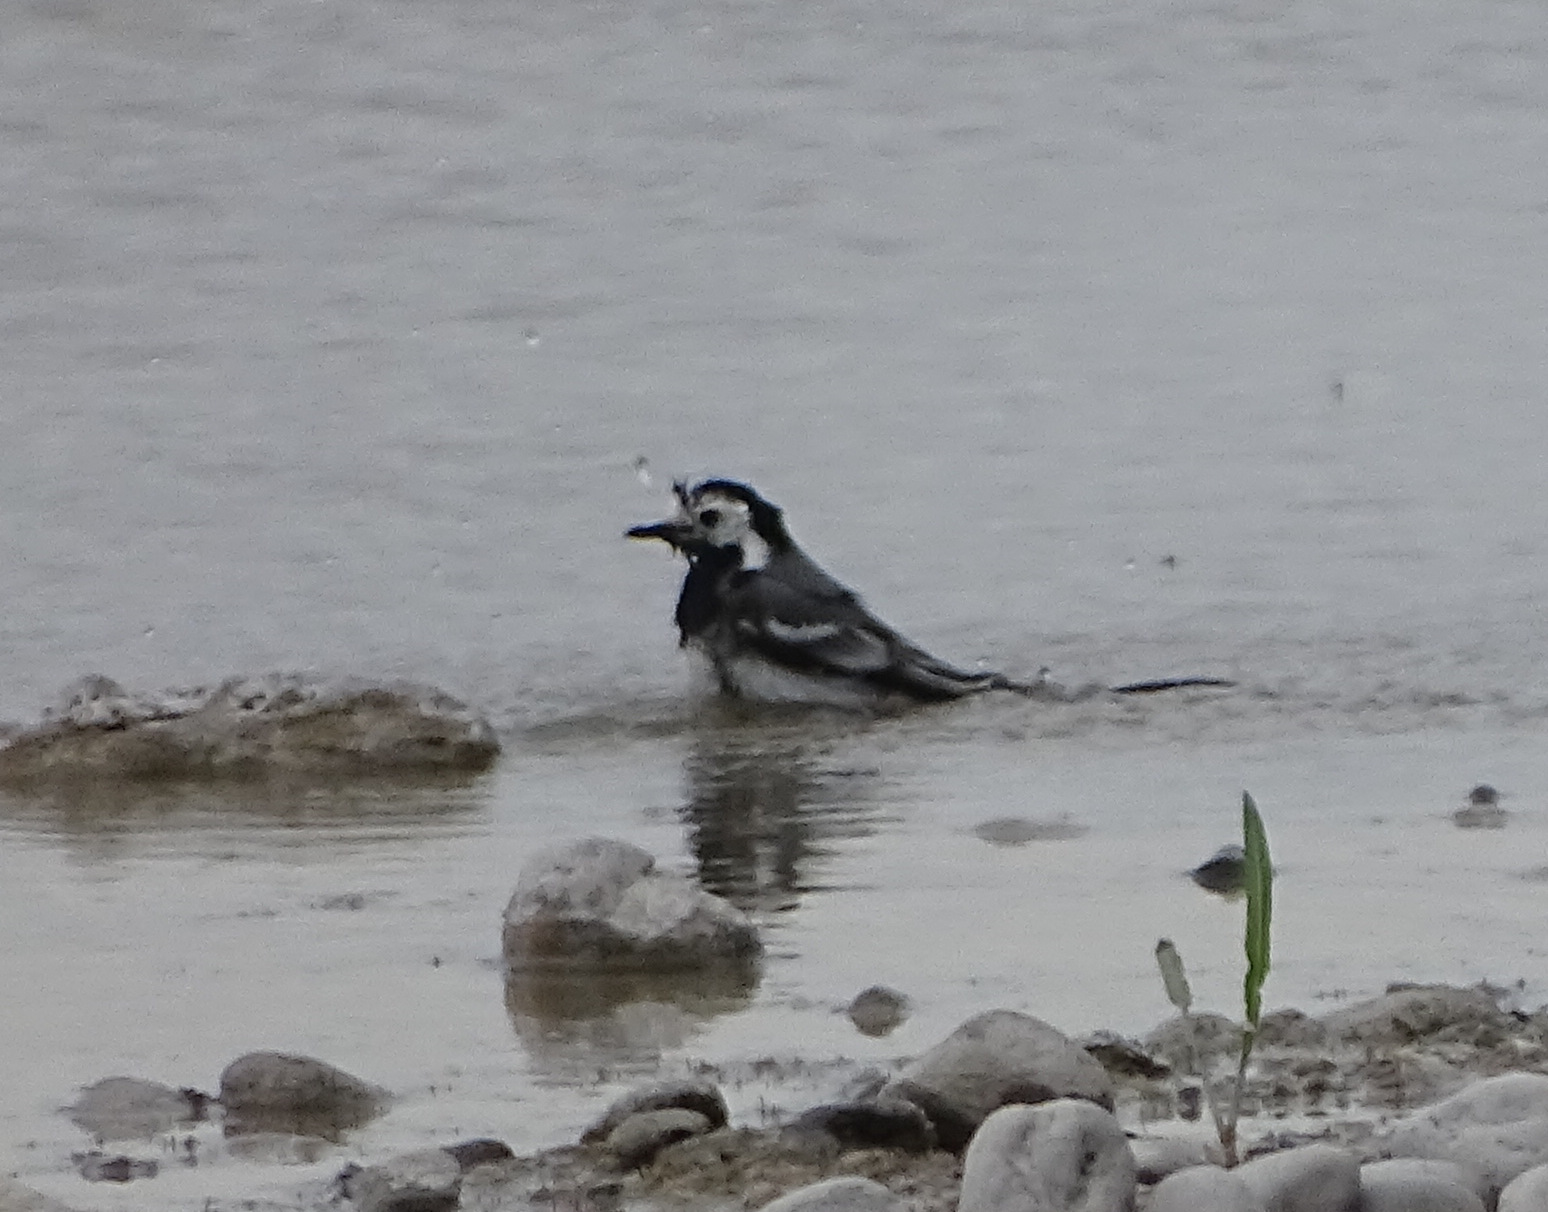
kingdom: Animalia
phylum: Chordata
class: Aves
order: Passeriformes
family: Motacillidae
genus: Motacilla
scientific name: Motacilla alba
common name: White wagtail
